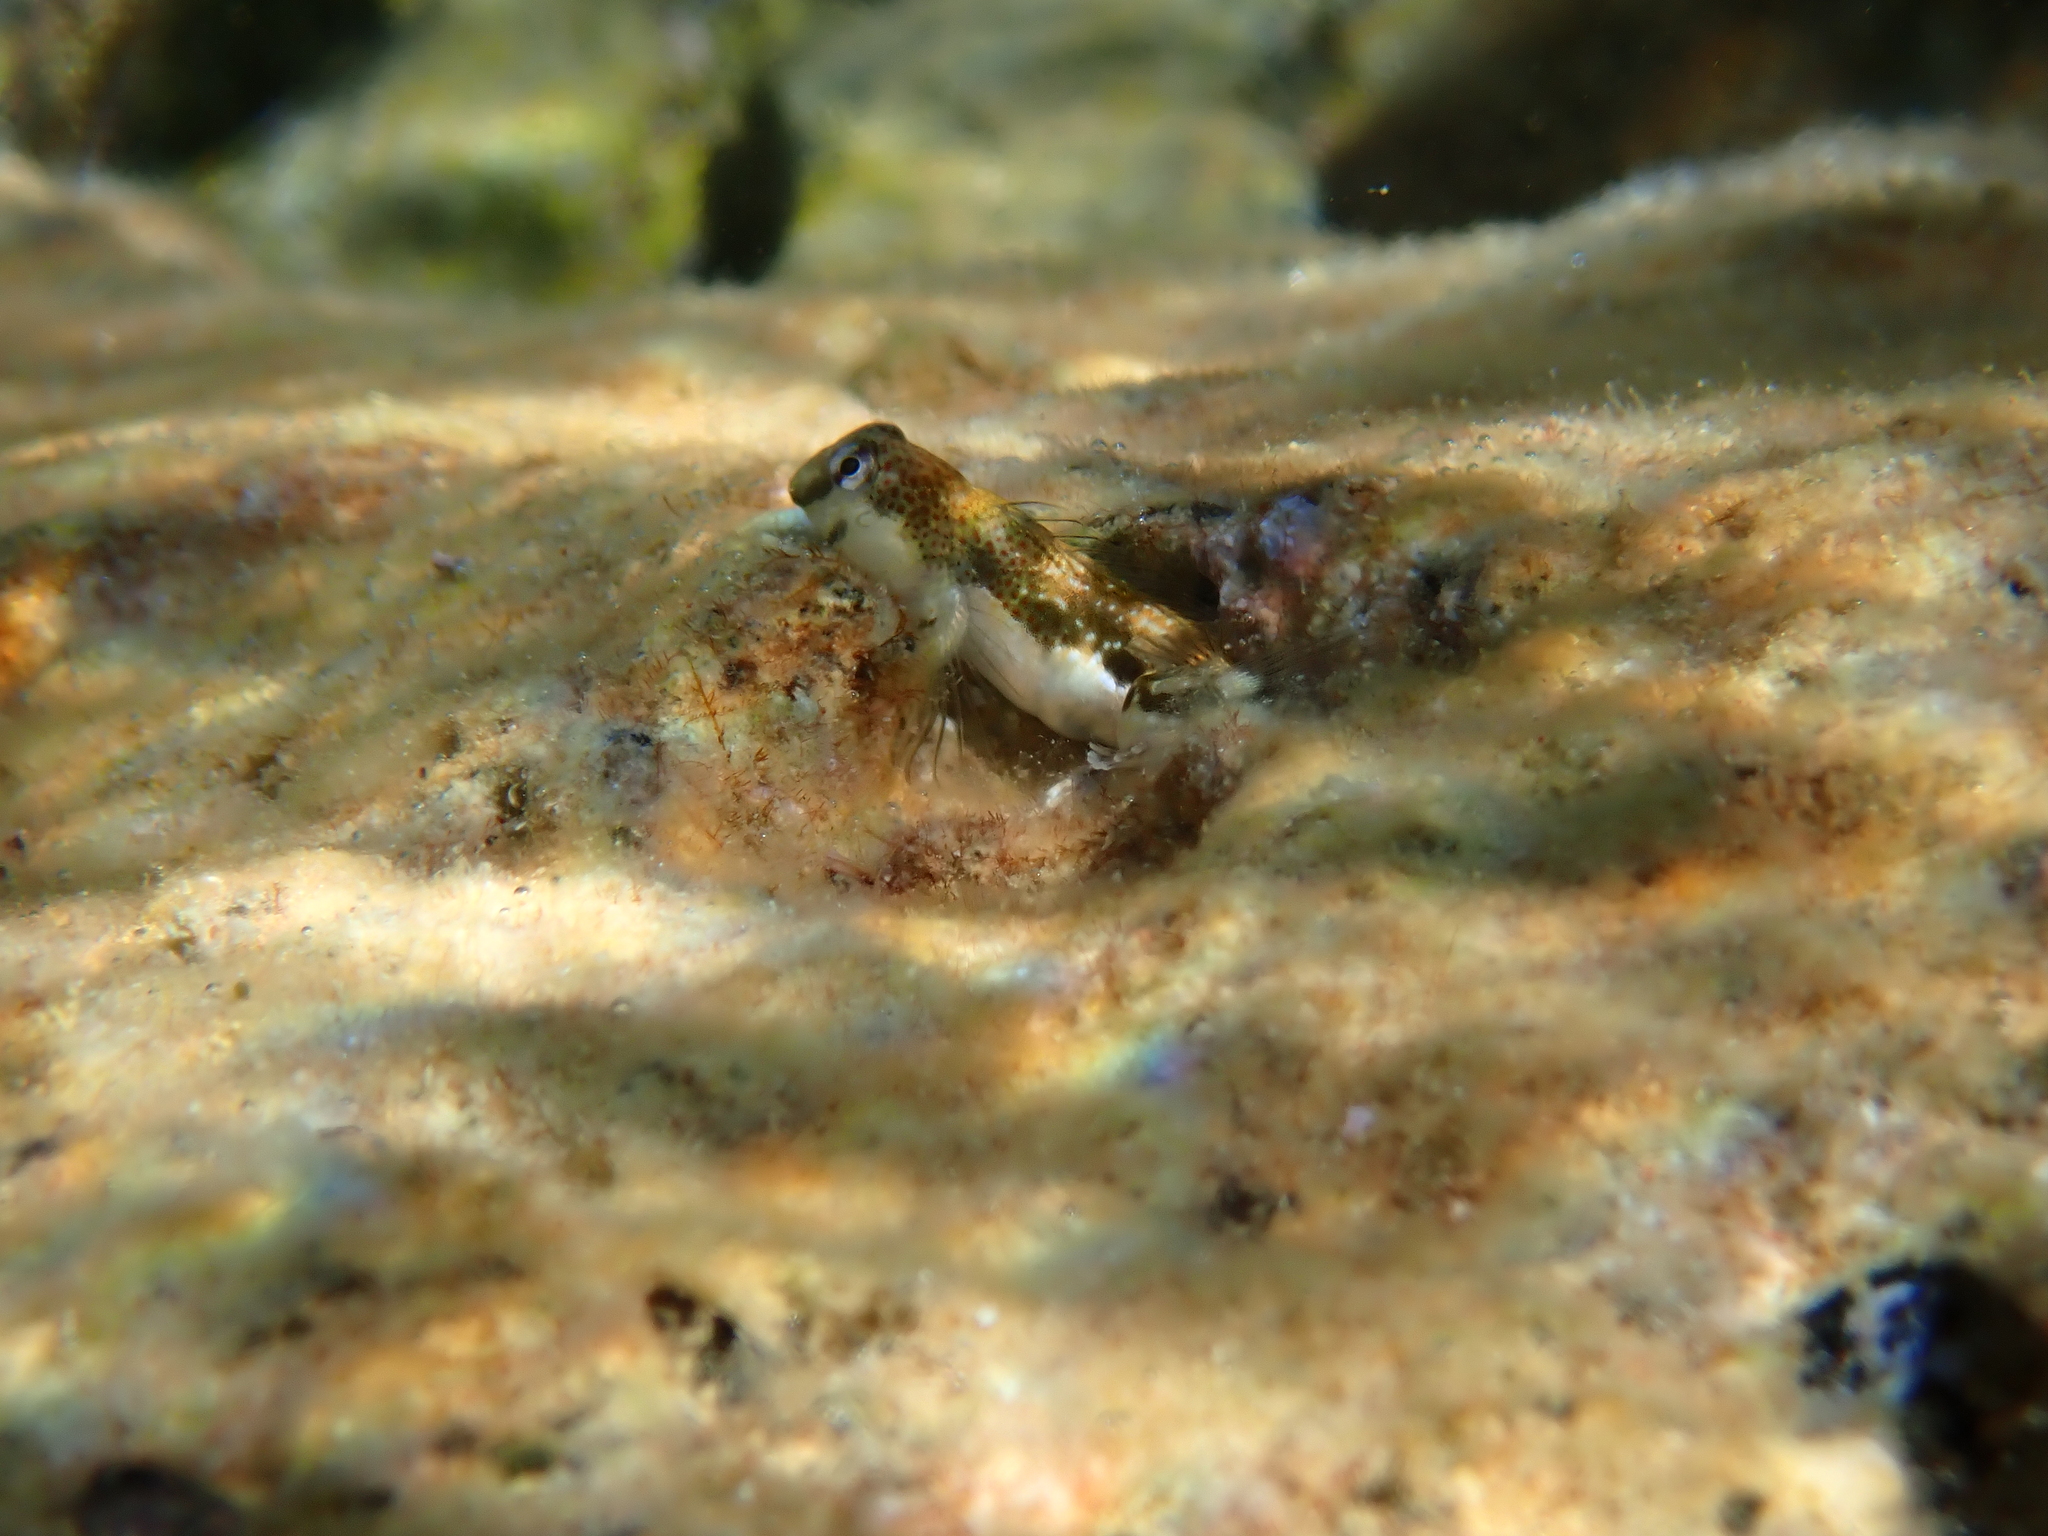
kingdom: Animalia
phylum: Chordata
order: Perciformes
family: Blenniidae
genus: Microlipophrys
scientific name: Microlipophrys adriaticus
